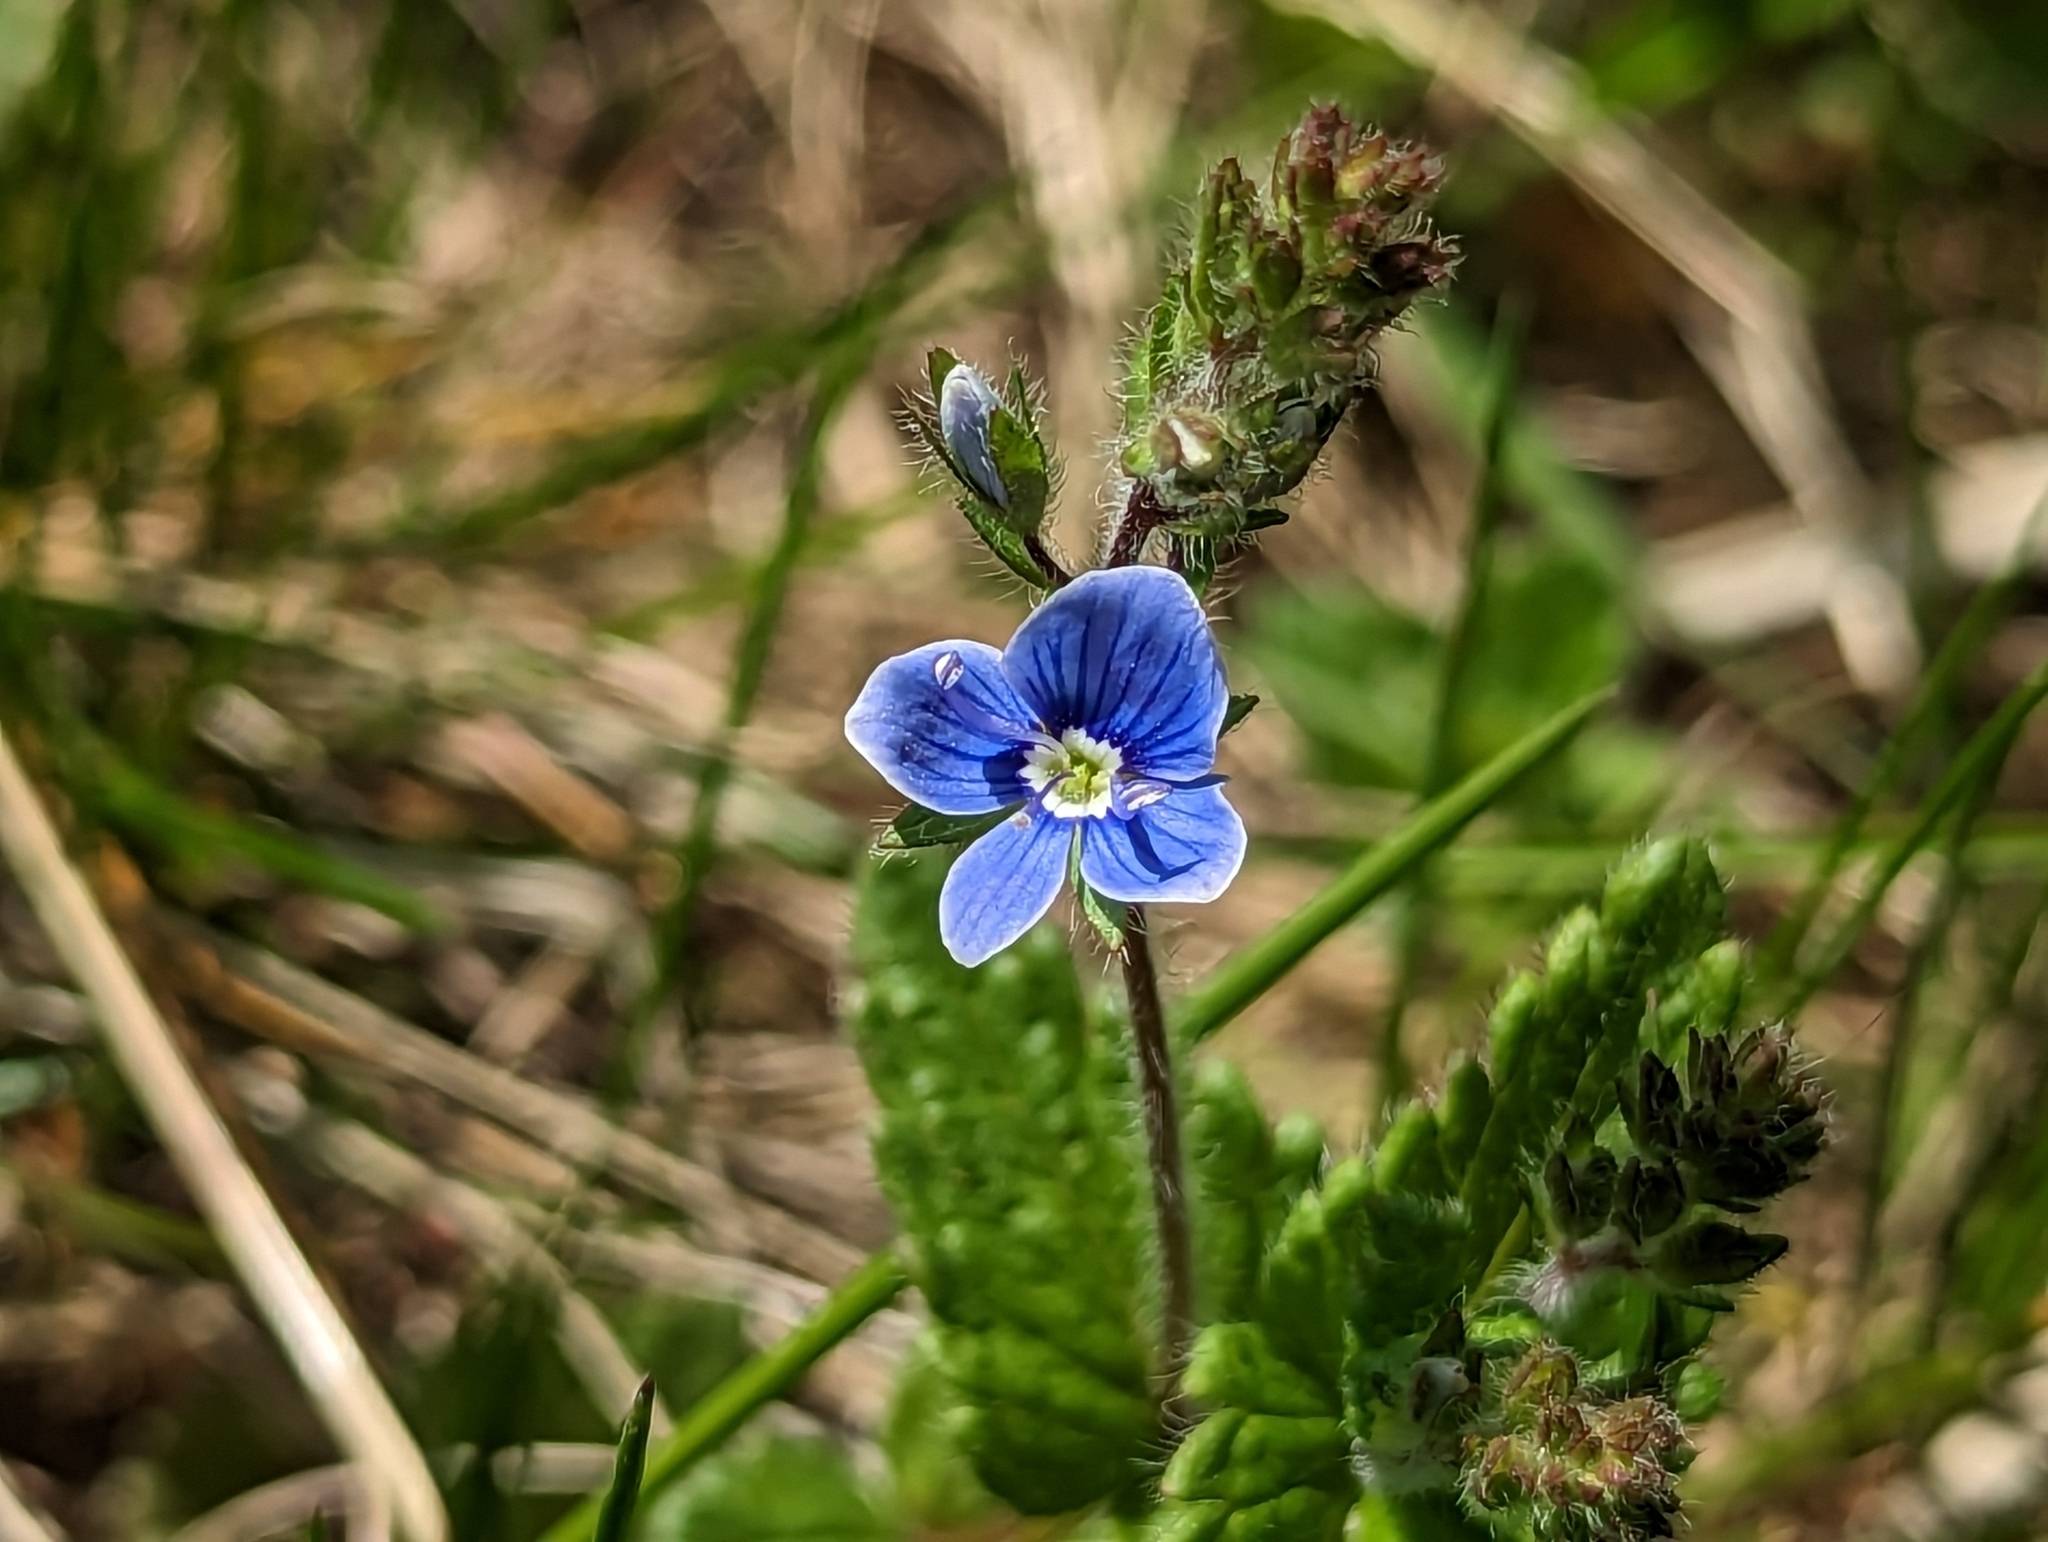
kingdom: Plantae
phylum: Tracheophyta
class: Magnoliopsida
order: Lamiales
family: Plantaginaceae
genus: Veronica
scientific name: Veronica chamaedrys
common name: Germander speedwell
